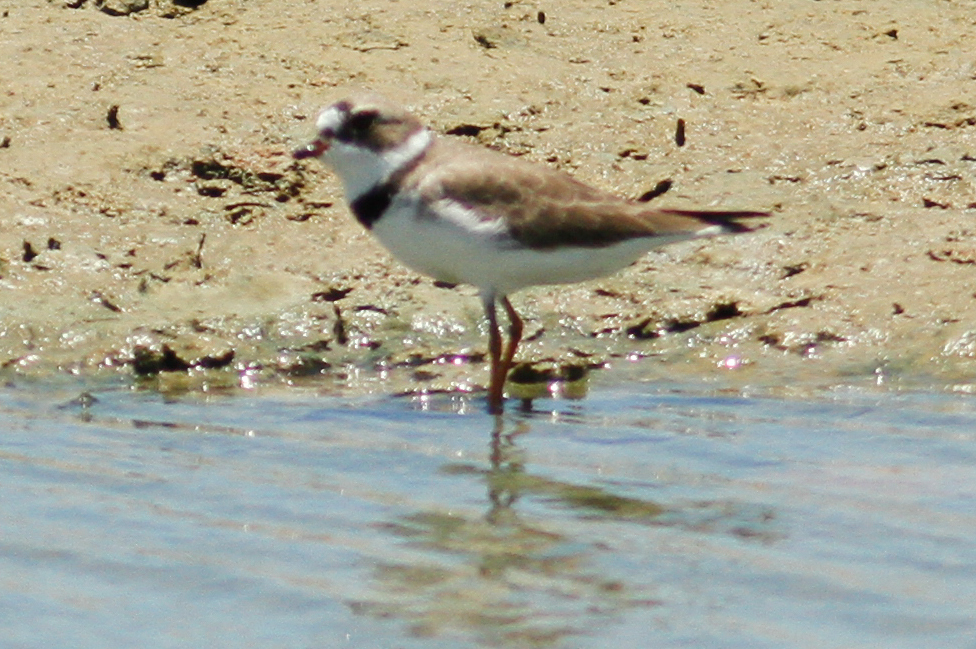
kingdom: Animalia
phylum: Chordata
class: Aves
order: Charadriiformes
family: Charadriidae
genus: Charadrius
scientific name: Charadrius semipalmatus
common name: Semipalmated plover
